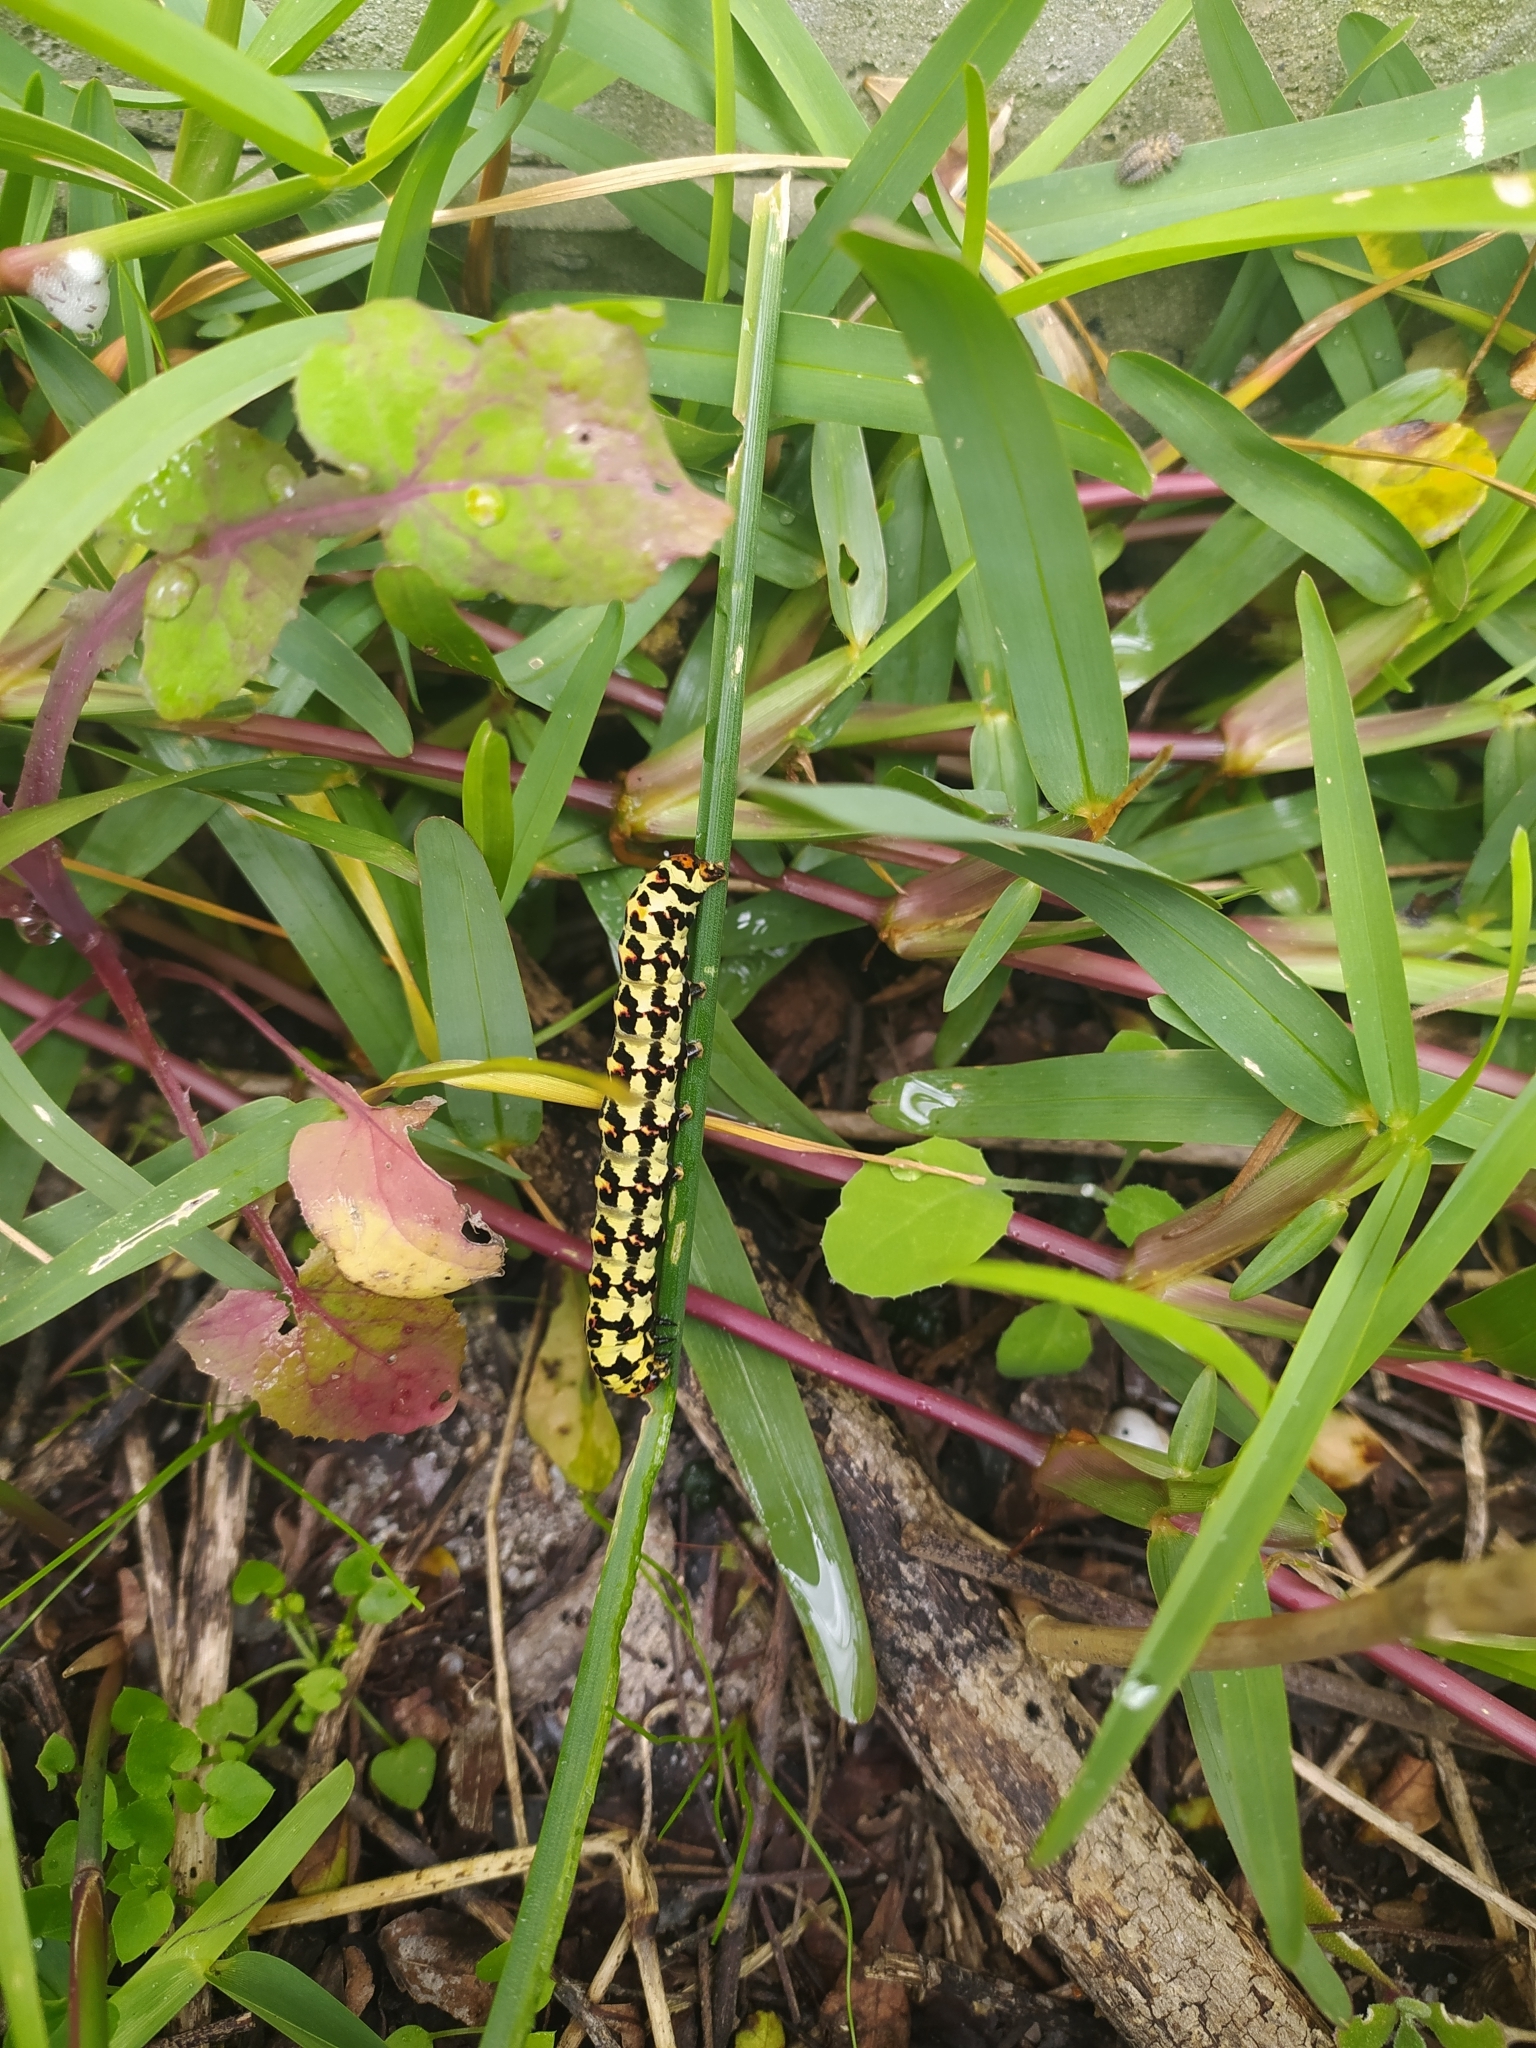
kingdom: Animalia
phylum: Arthropoda
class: Insecta
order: Lepidoptera
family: Noctuidae
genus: Diaphone
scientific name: Diaphone eumela
